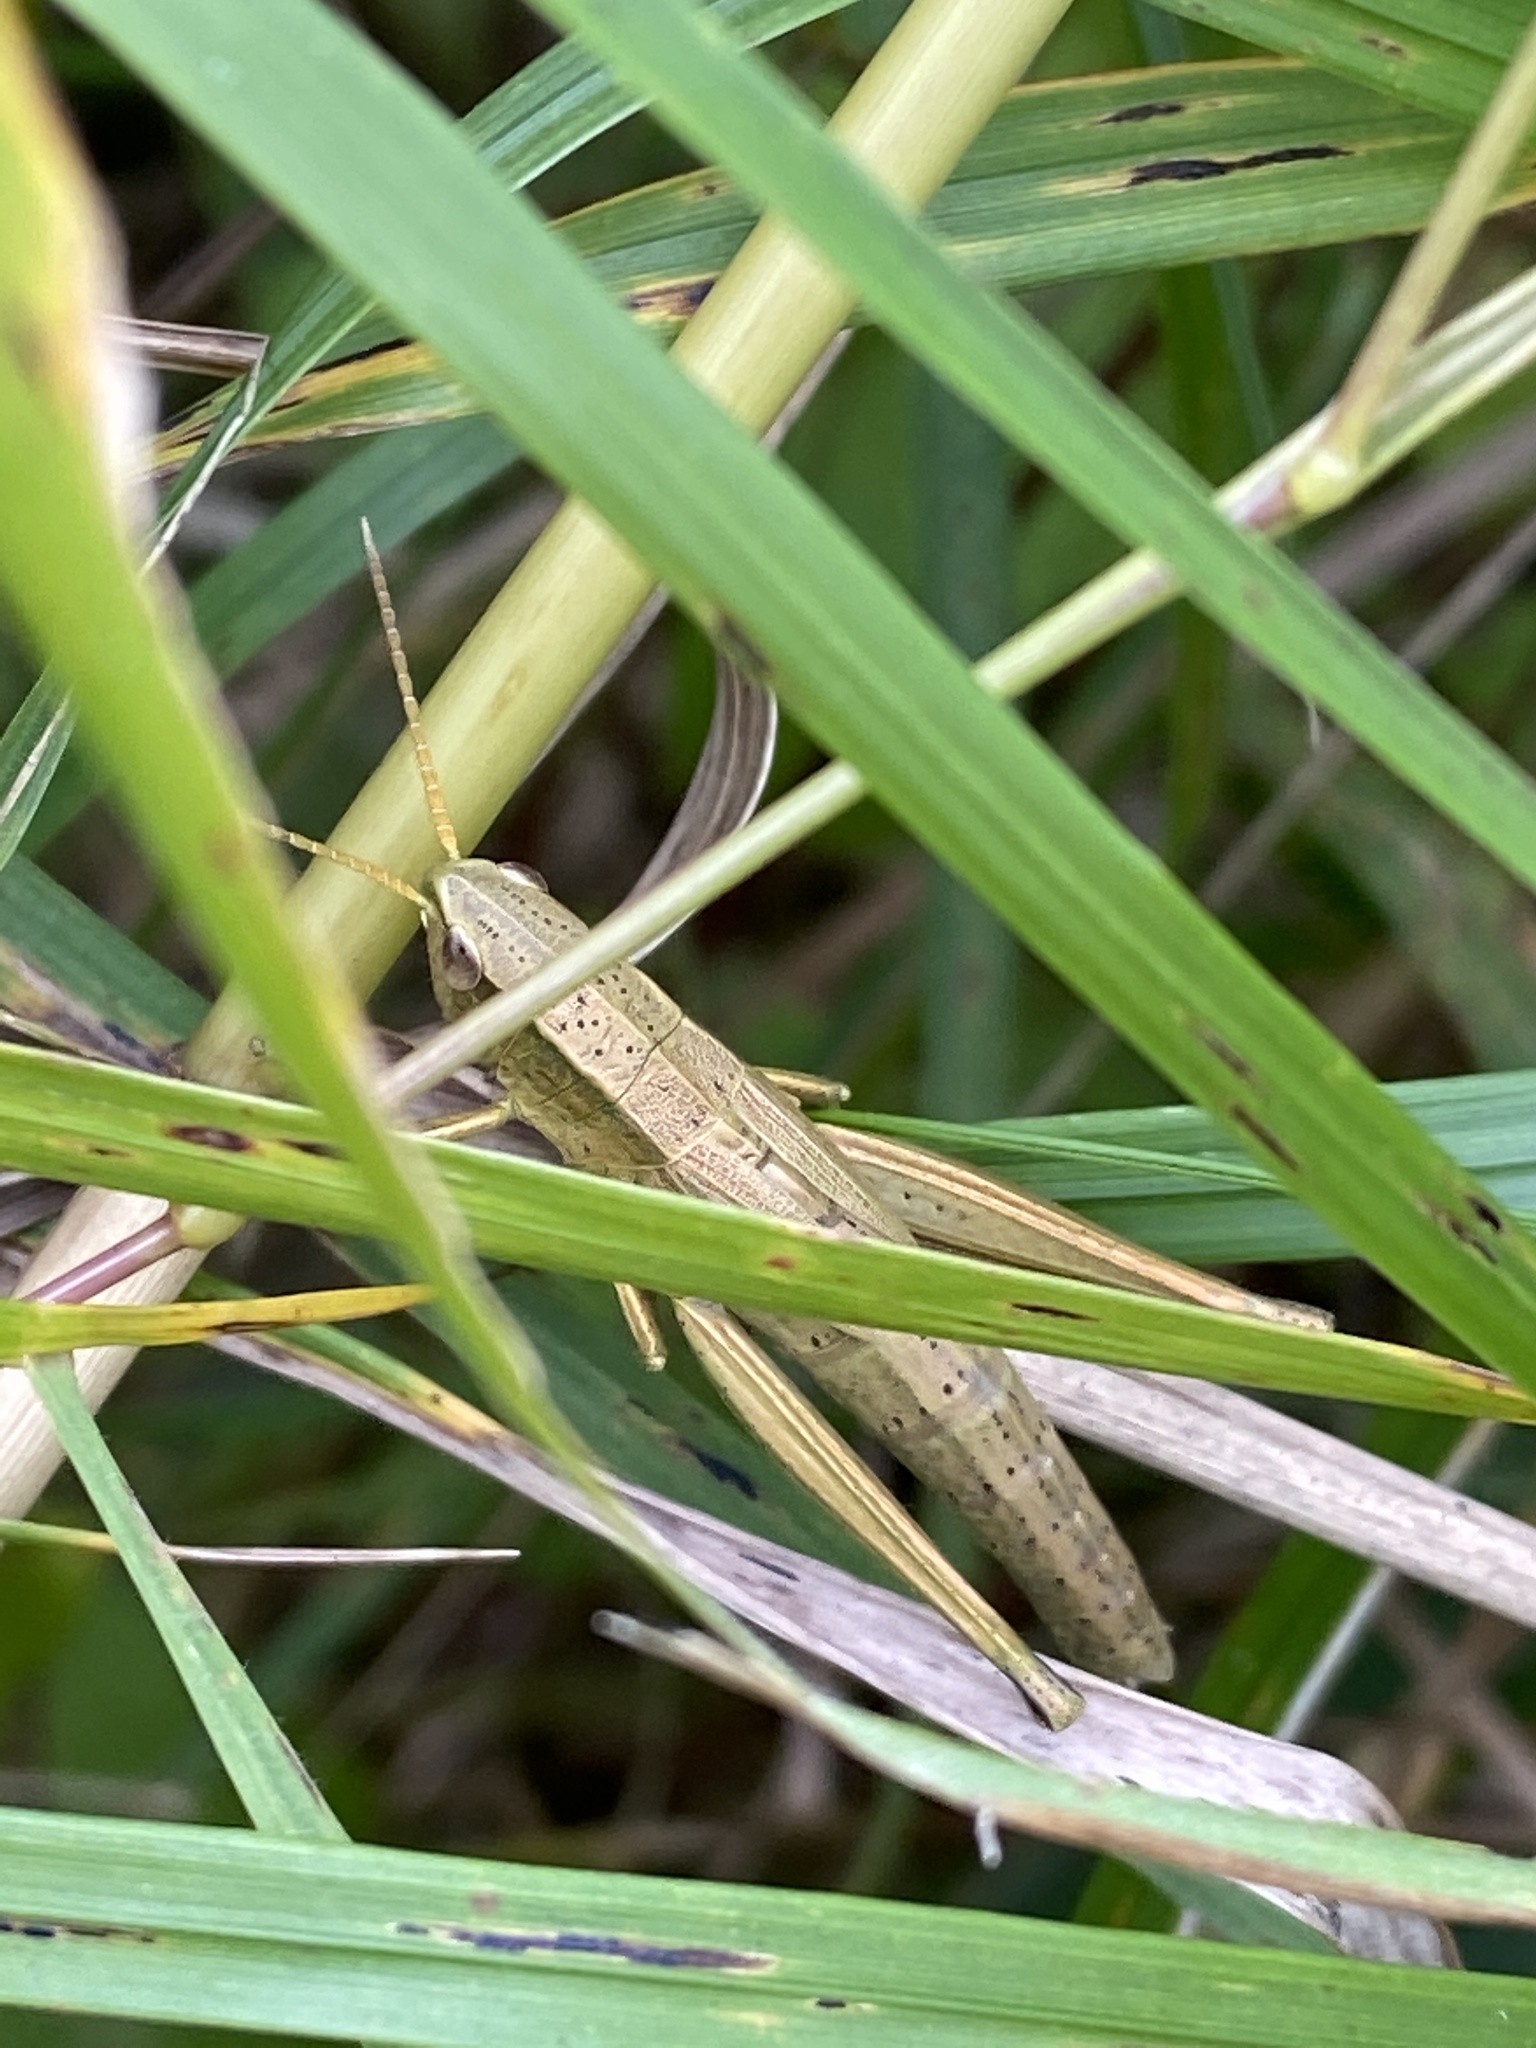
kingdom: Animalia
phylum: Arthropoda
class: Insecta
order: Orthoptera
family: Acrididae
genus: Chrysochraon
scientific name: Chrysochraon dispar
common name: Large gold grasshopper
